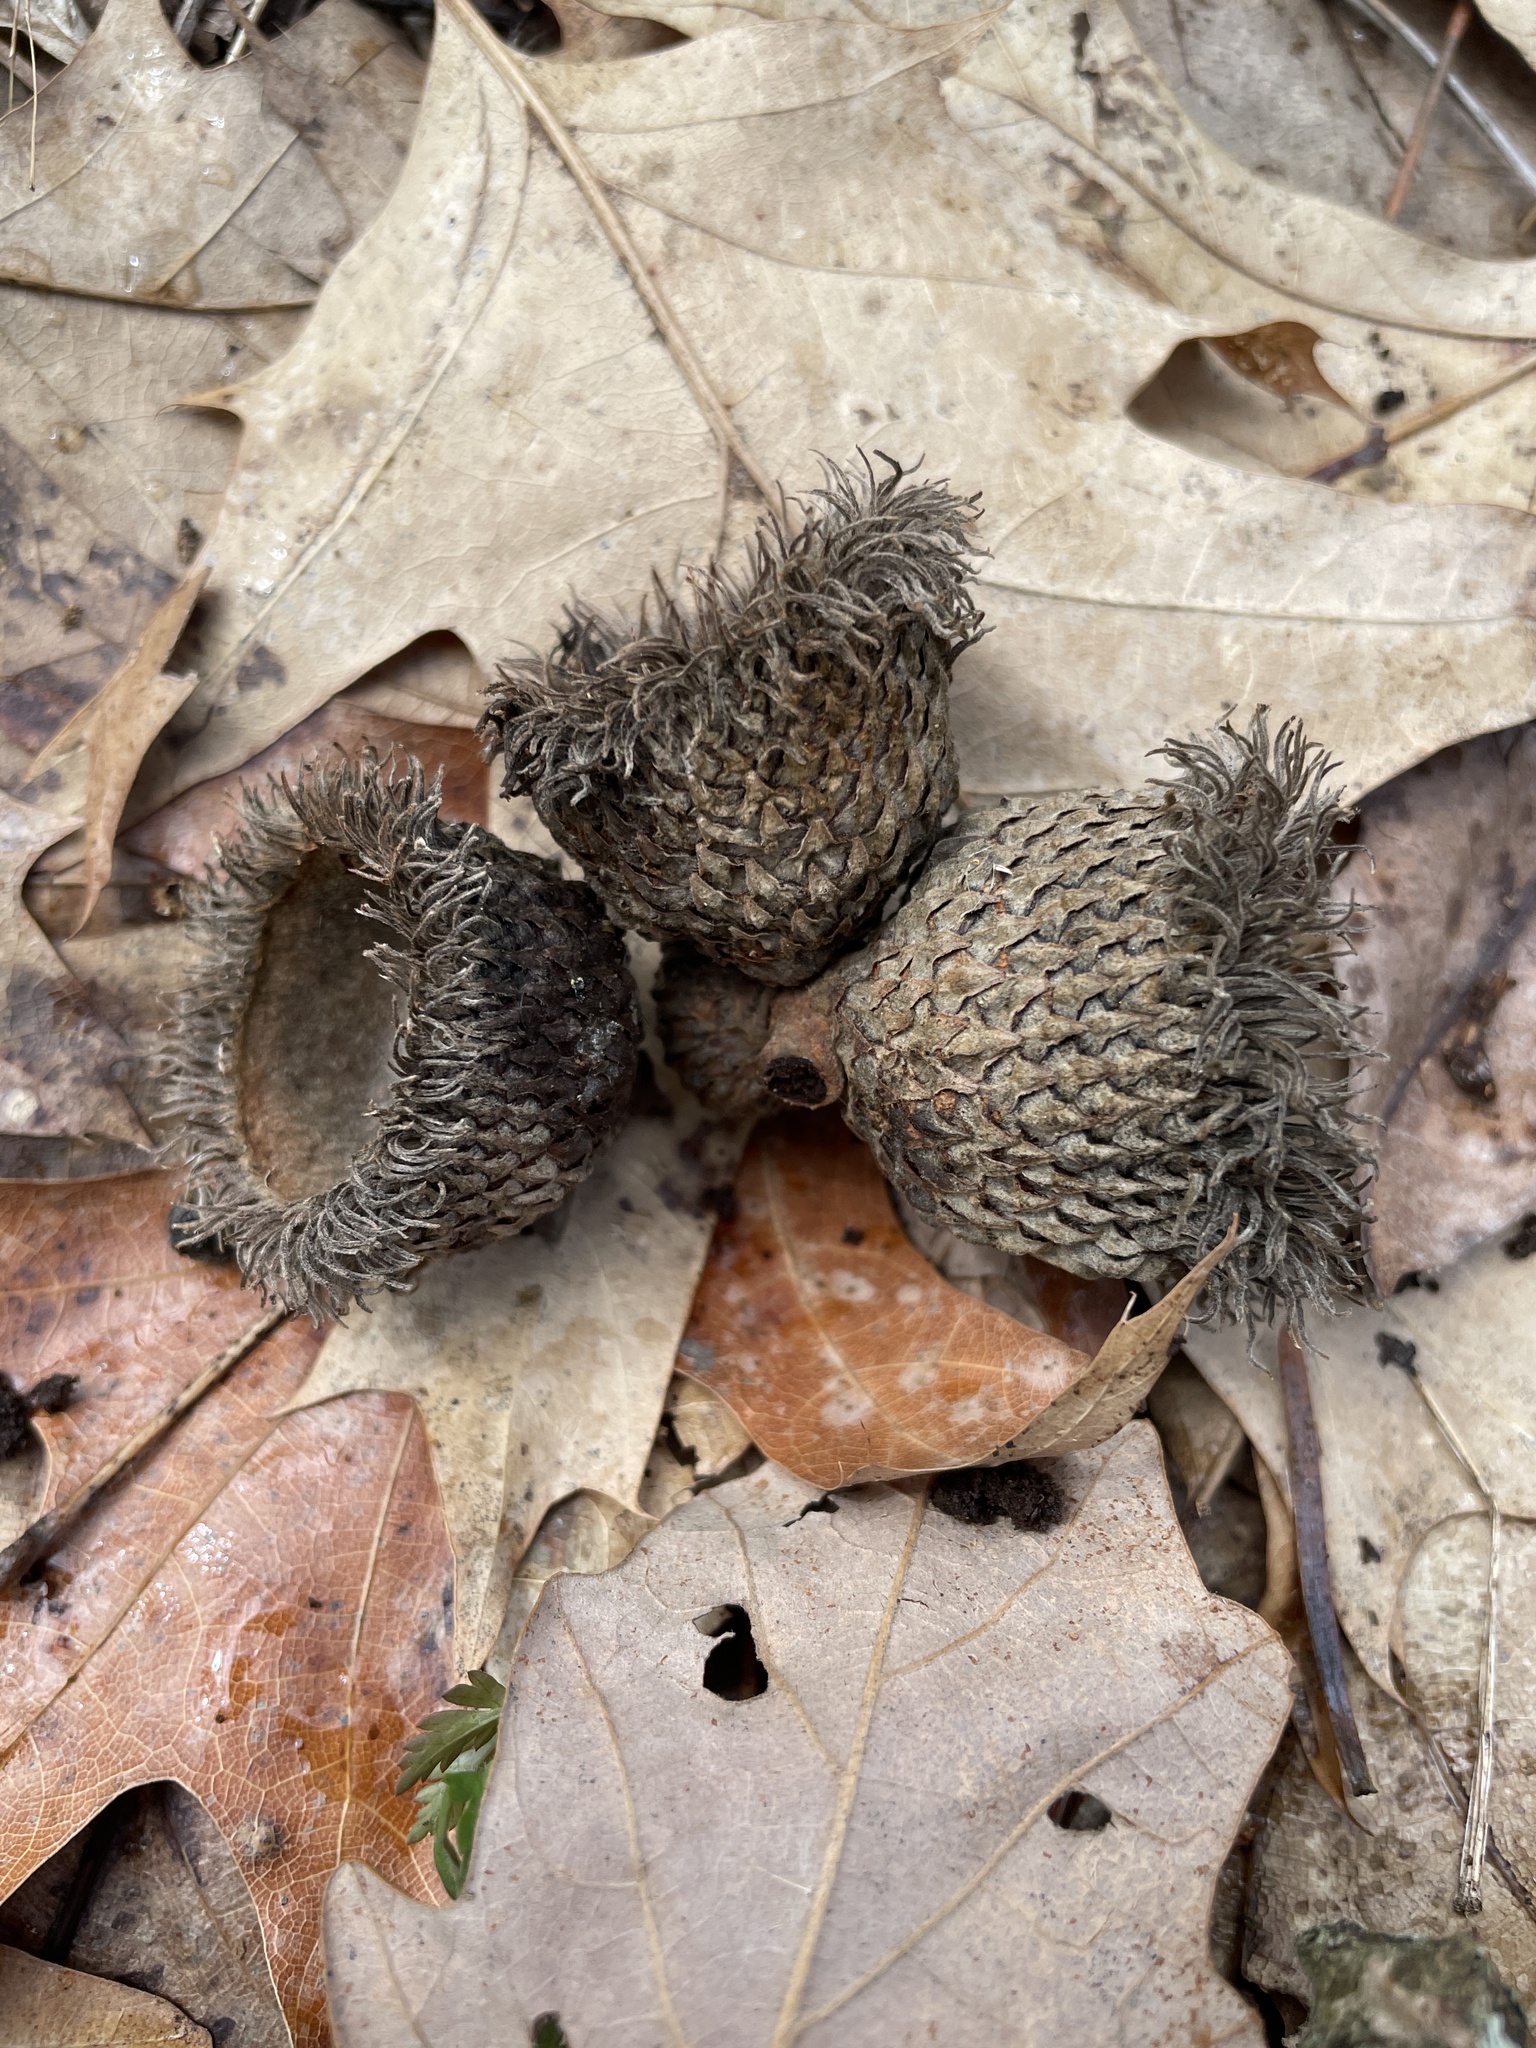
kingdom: Plantae
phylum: Tracheophyta
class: Magnoliopsida
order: Fagales
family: Fagaceae
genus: Quercus
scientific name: Quercus macrocarpa
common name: Bur oak
